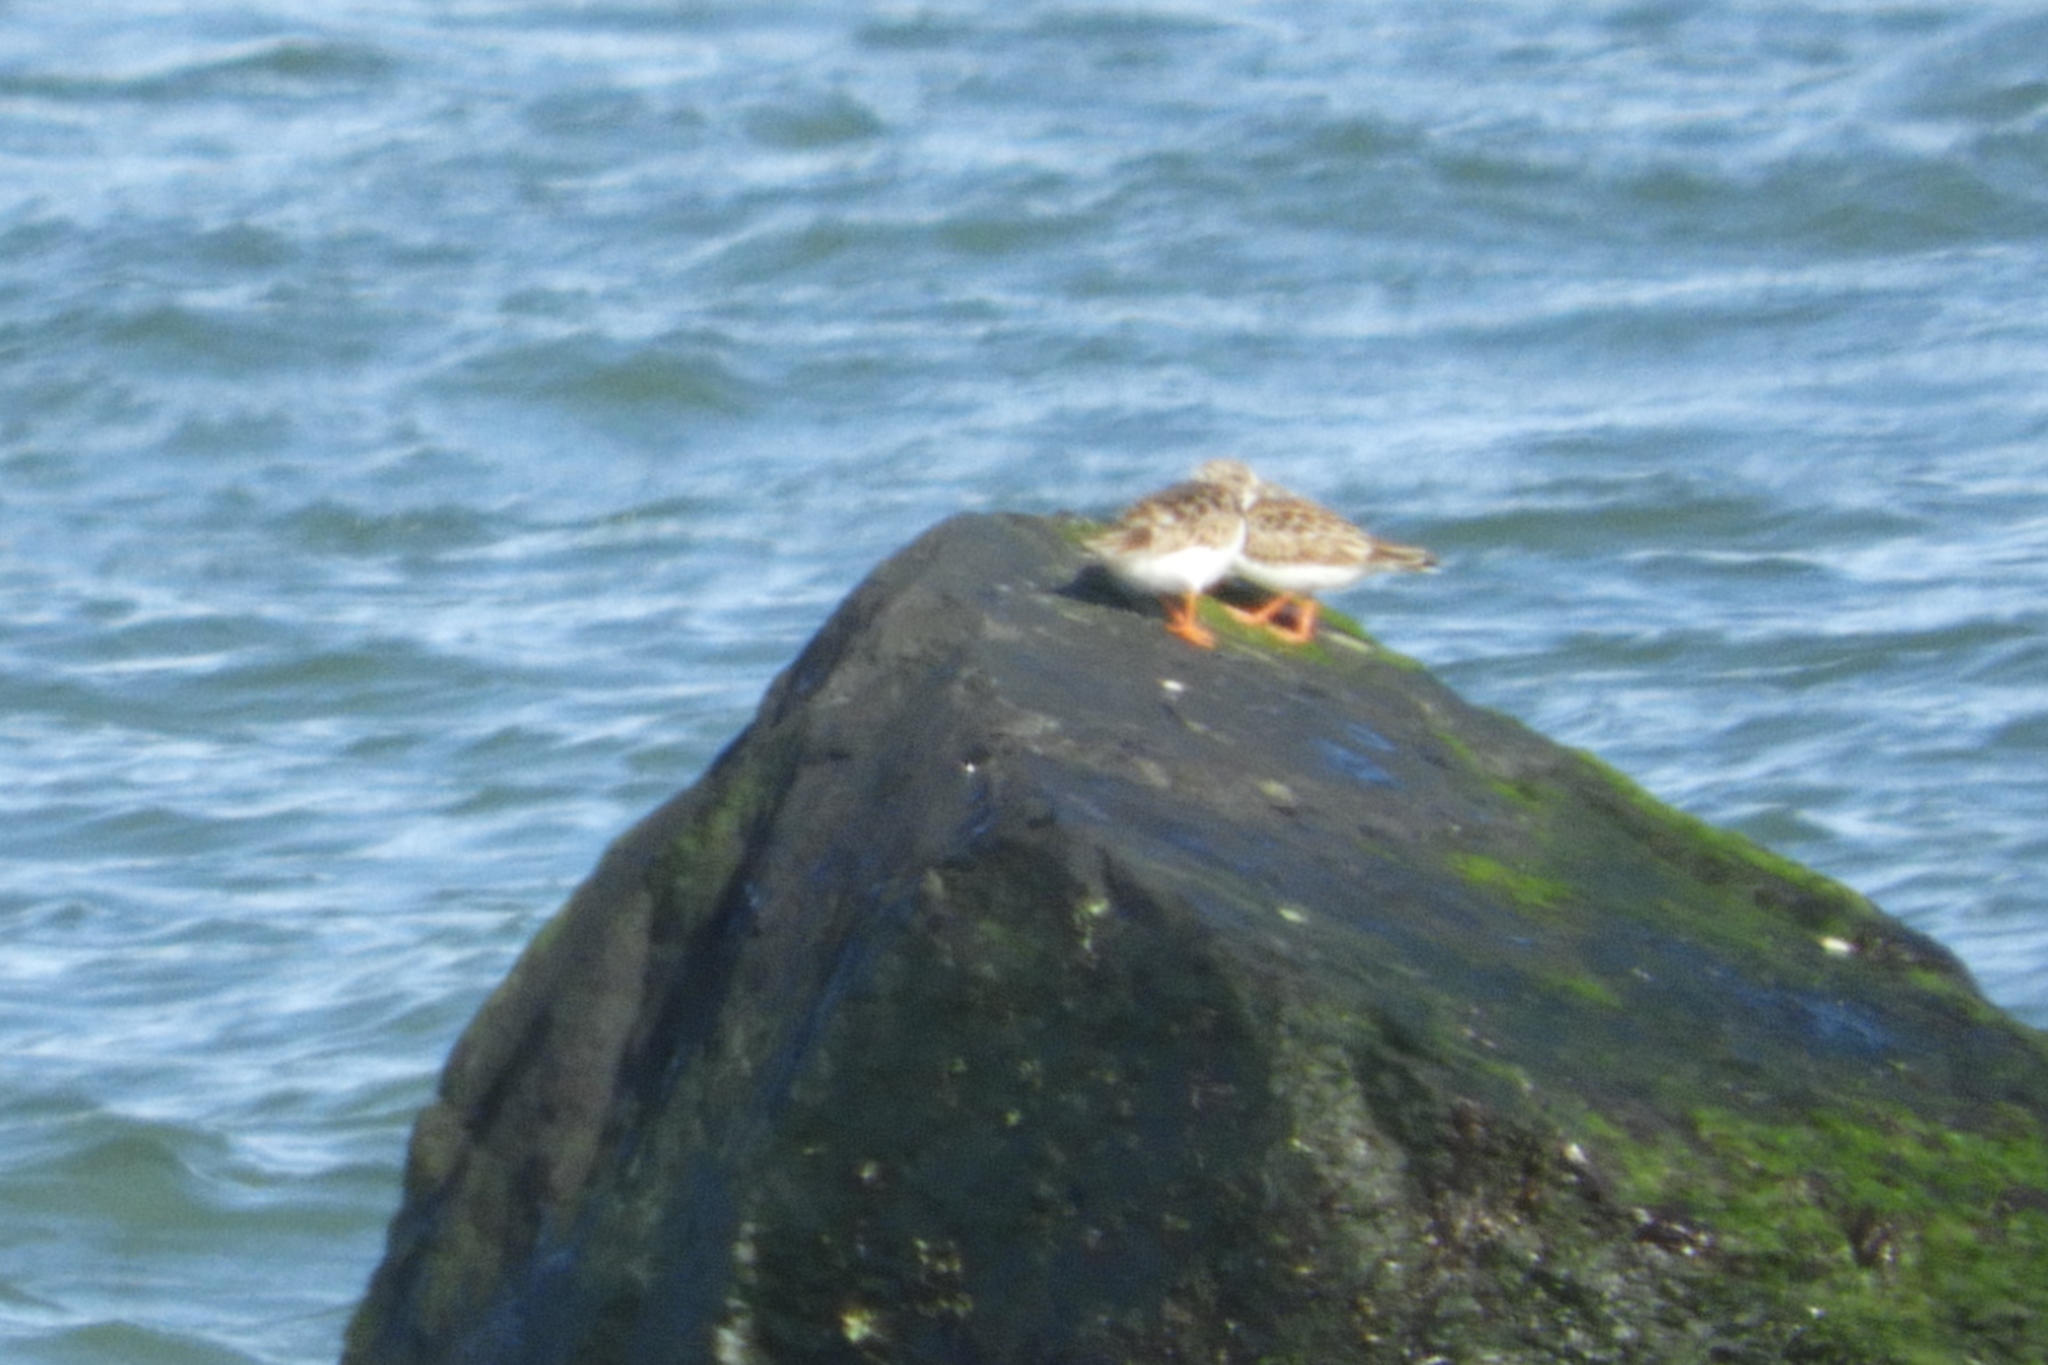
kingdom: Animalia
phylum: Chordata
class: Aves
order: Charadriiformes
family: Scolopacidae
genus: Arenaria
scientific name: Arenaria interpres
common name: Ruddy turnstone
